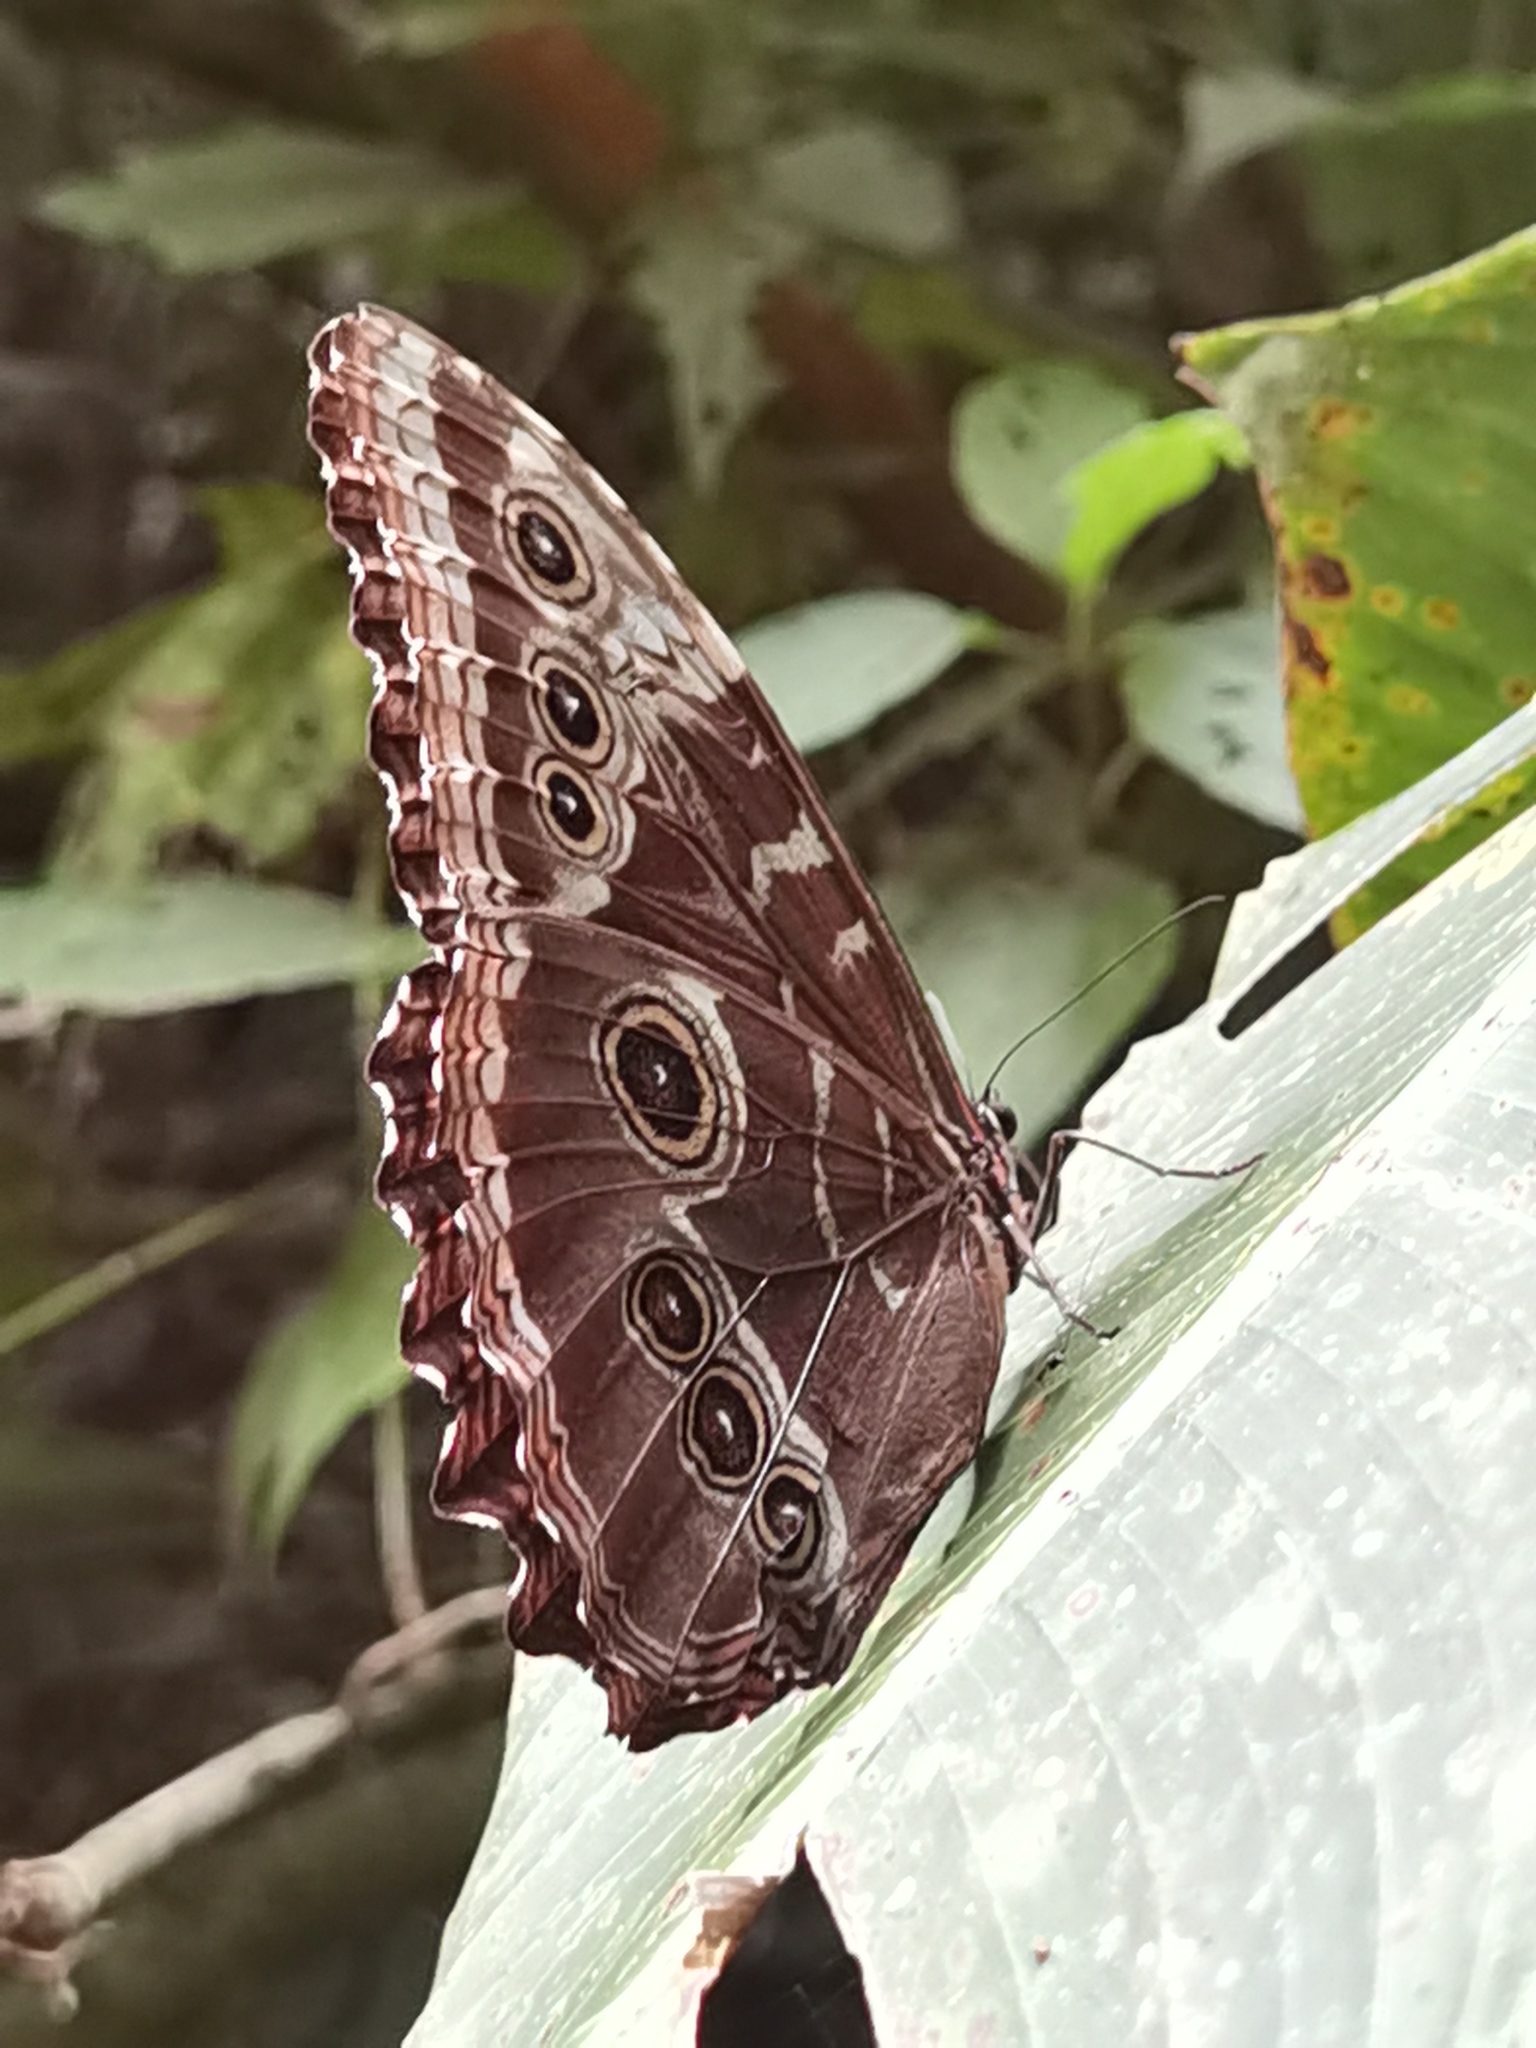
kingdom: Animalia
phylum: Arthropoda
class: Insecta
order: Lepidoptera
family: Nymphalidae
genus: Morpho
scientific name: Morpho helenor
